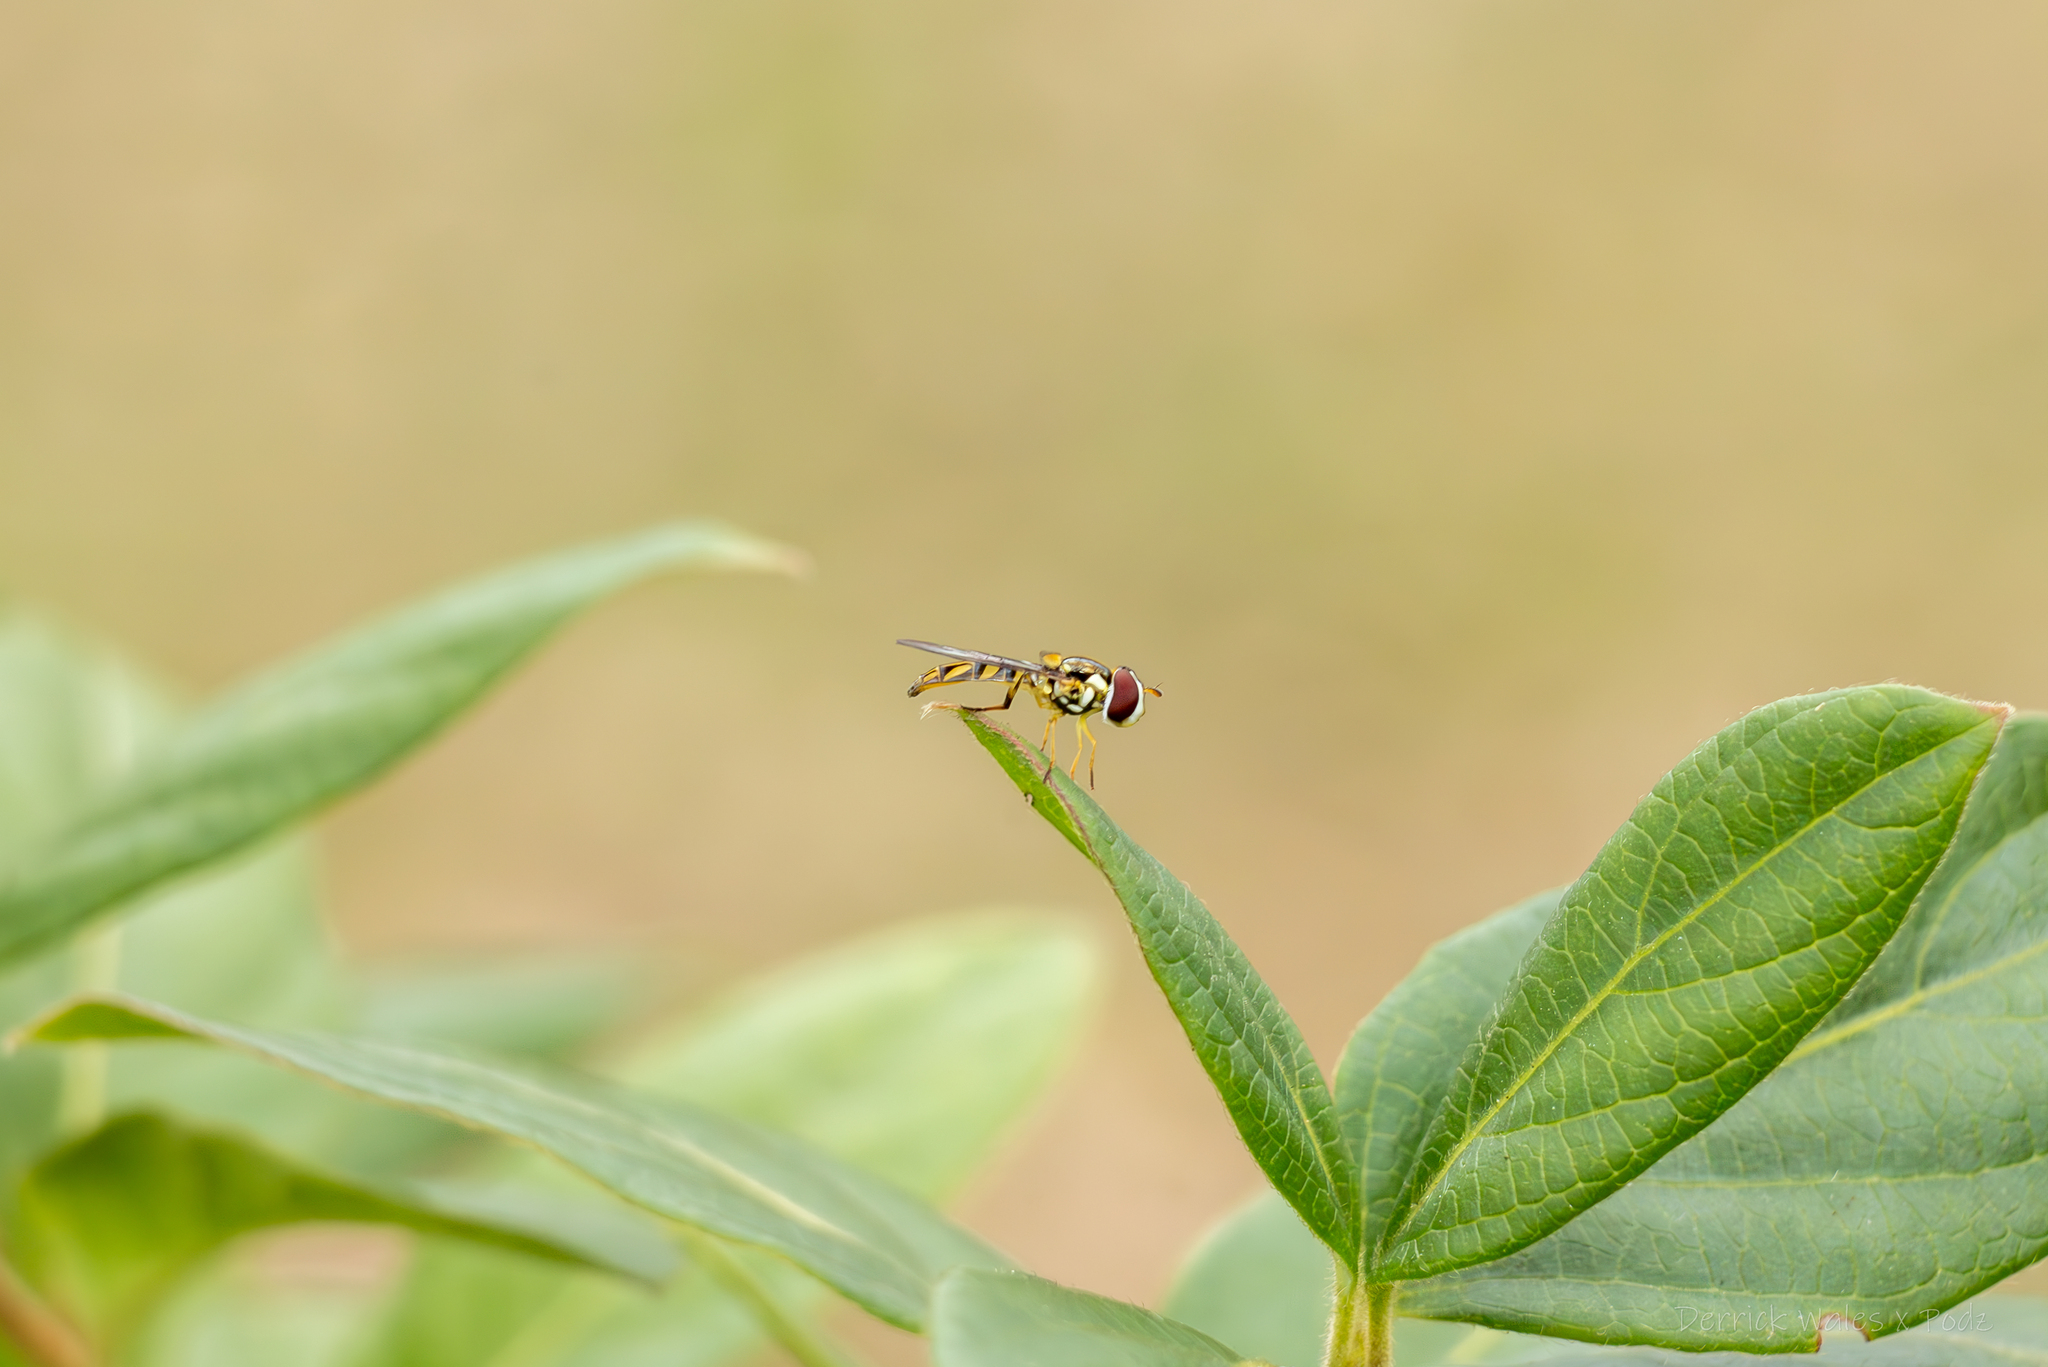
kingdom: Animalia
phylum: Arthropoda
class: Insecta
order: Diptera
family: Syrphidae
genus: Allograpta
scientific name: Allograpta obliqua
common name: Common oblique syrphid
